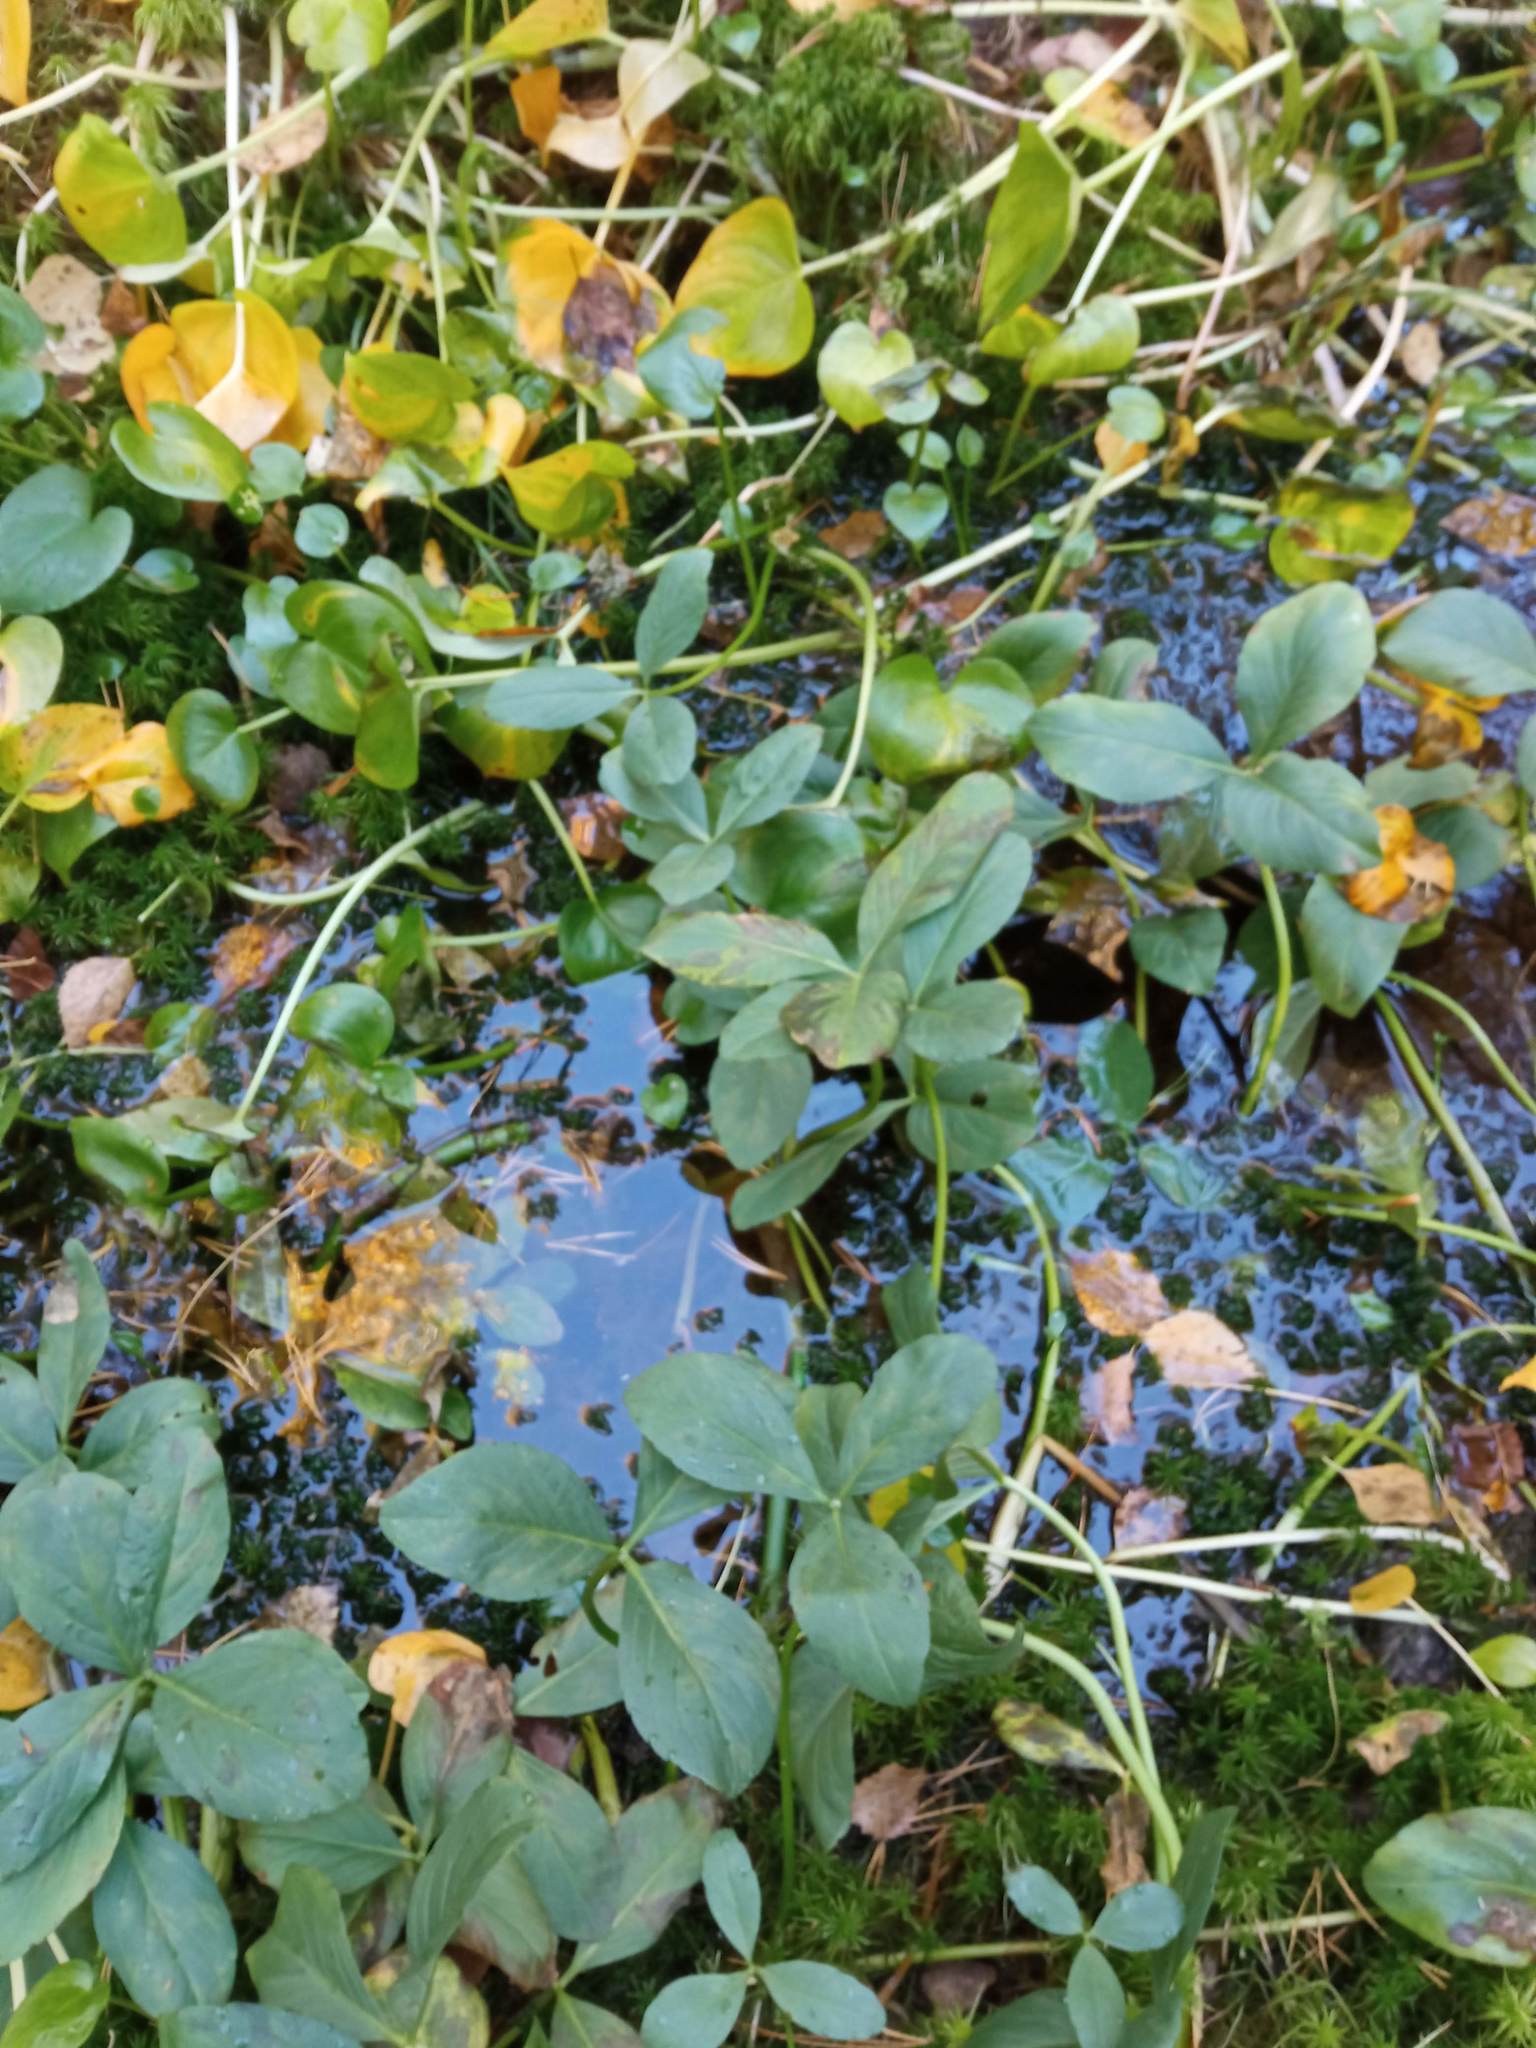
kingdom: Plantae
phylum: Tracheophyta
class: Magnoliopsida
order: Asterales
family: Menyanthaceae
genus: Menyanthes
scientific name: Menyanthes trifoliata
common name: Bogbean
